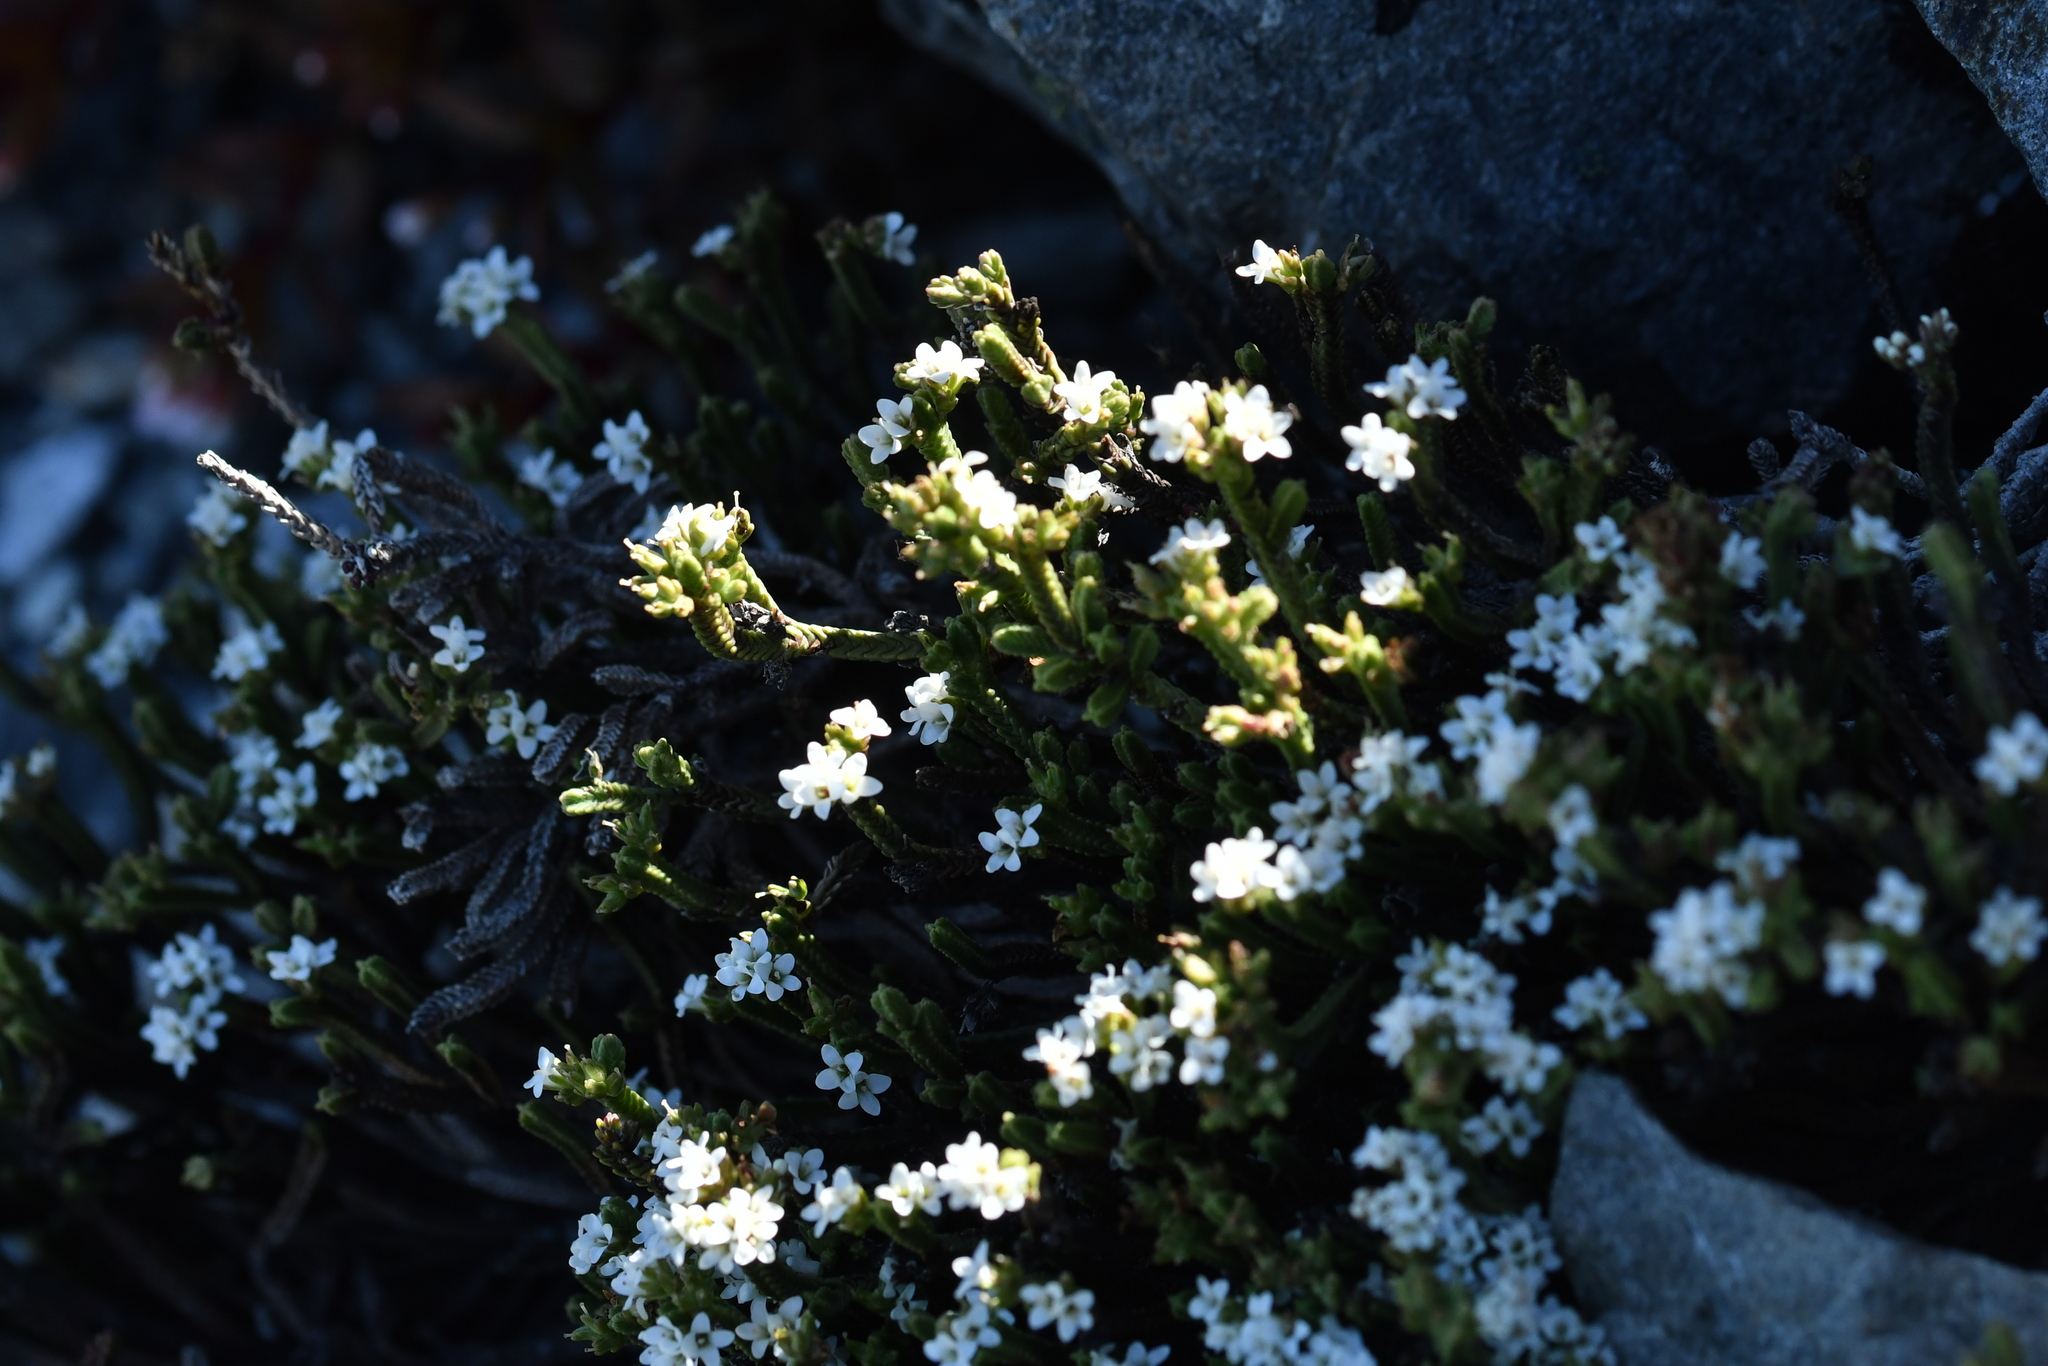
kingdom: Plantae
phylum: Tracheophyta
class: Magnoliopsida
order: Lamiales
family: Plantaginaceae
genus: Veronica
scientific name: Veronica tetrasticha
